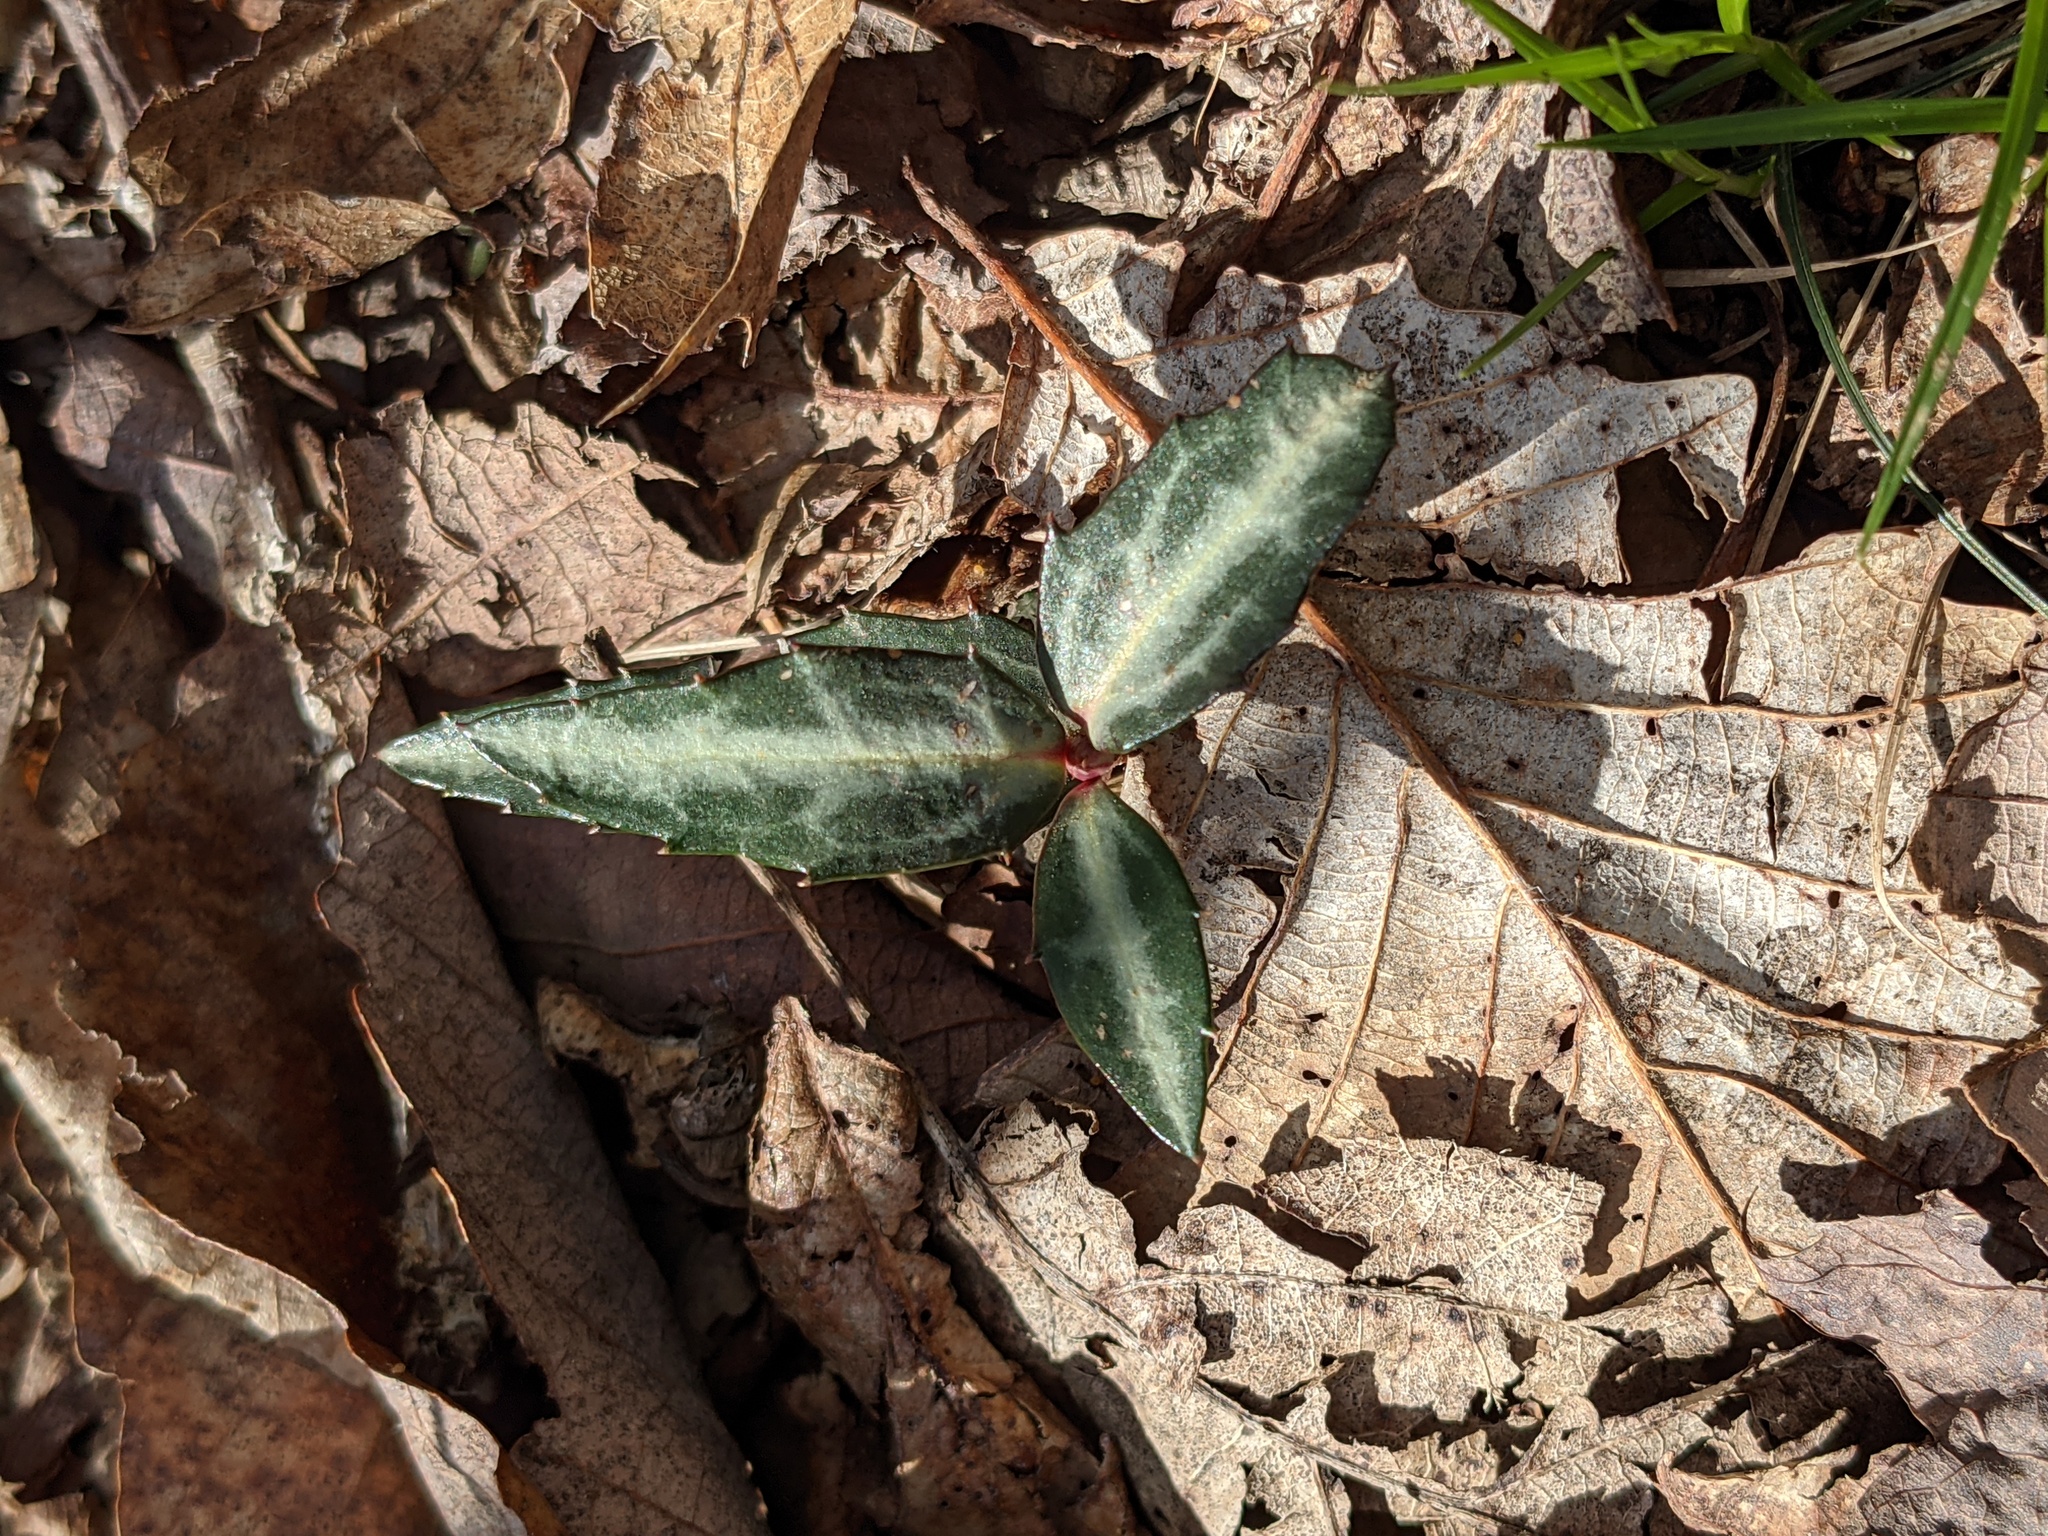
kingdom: Plantae
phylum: Tracheophyta
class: Magnoliopsida
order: Ericales
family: Ericaceae
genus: Chimaphila
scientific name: Chimaphila maculata
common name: Spotted pipsissewa
